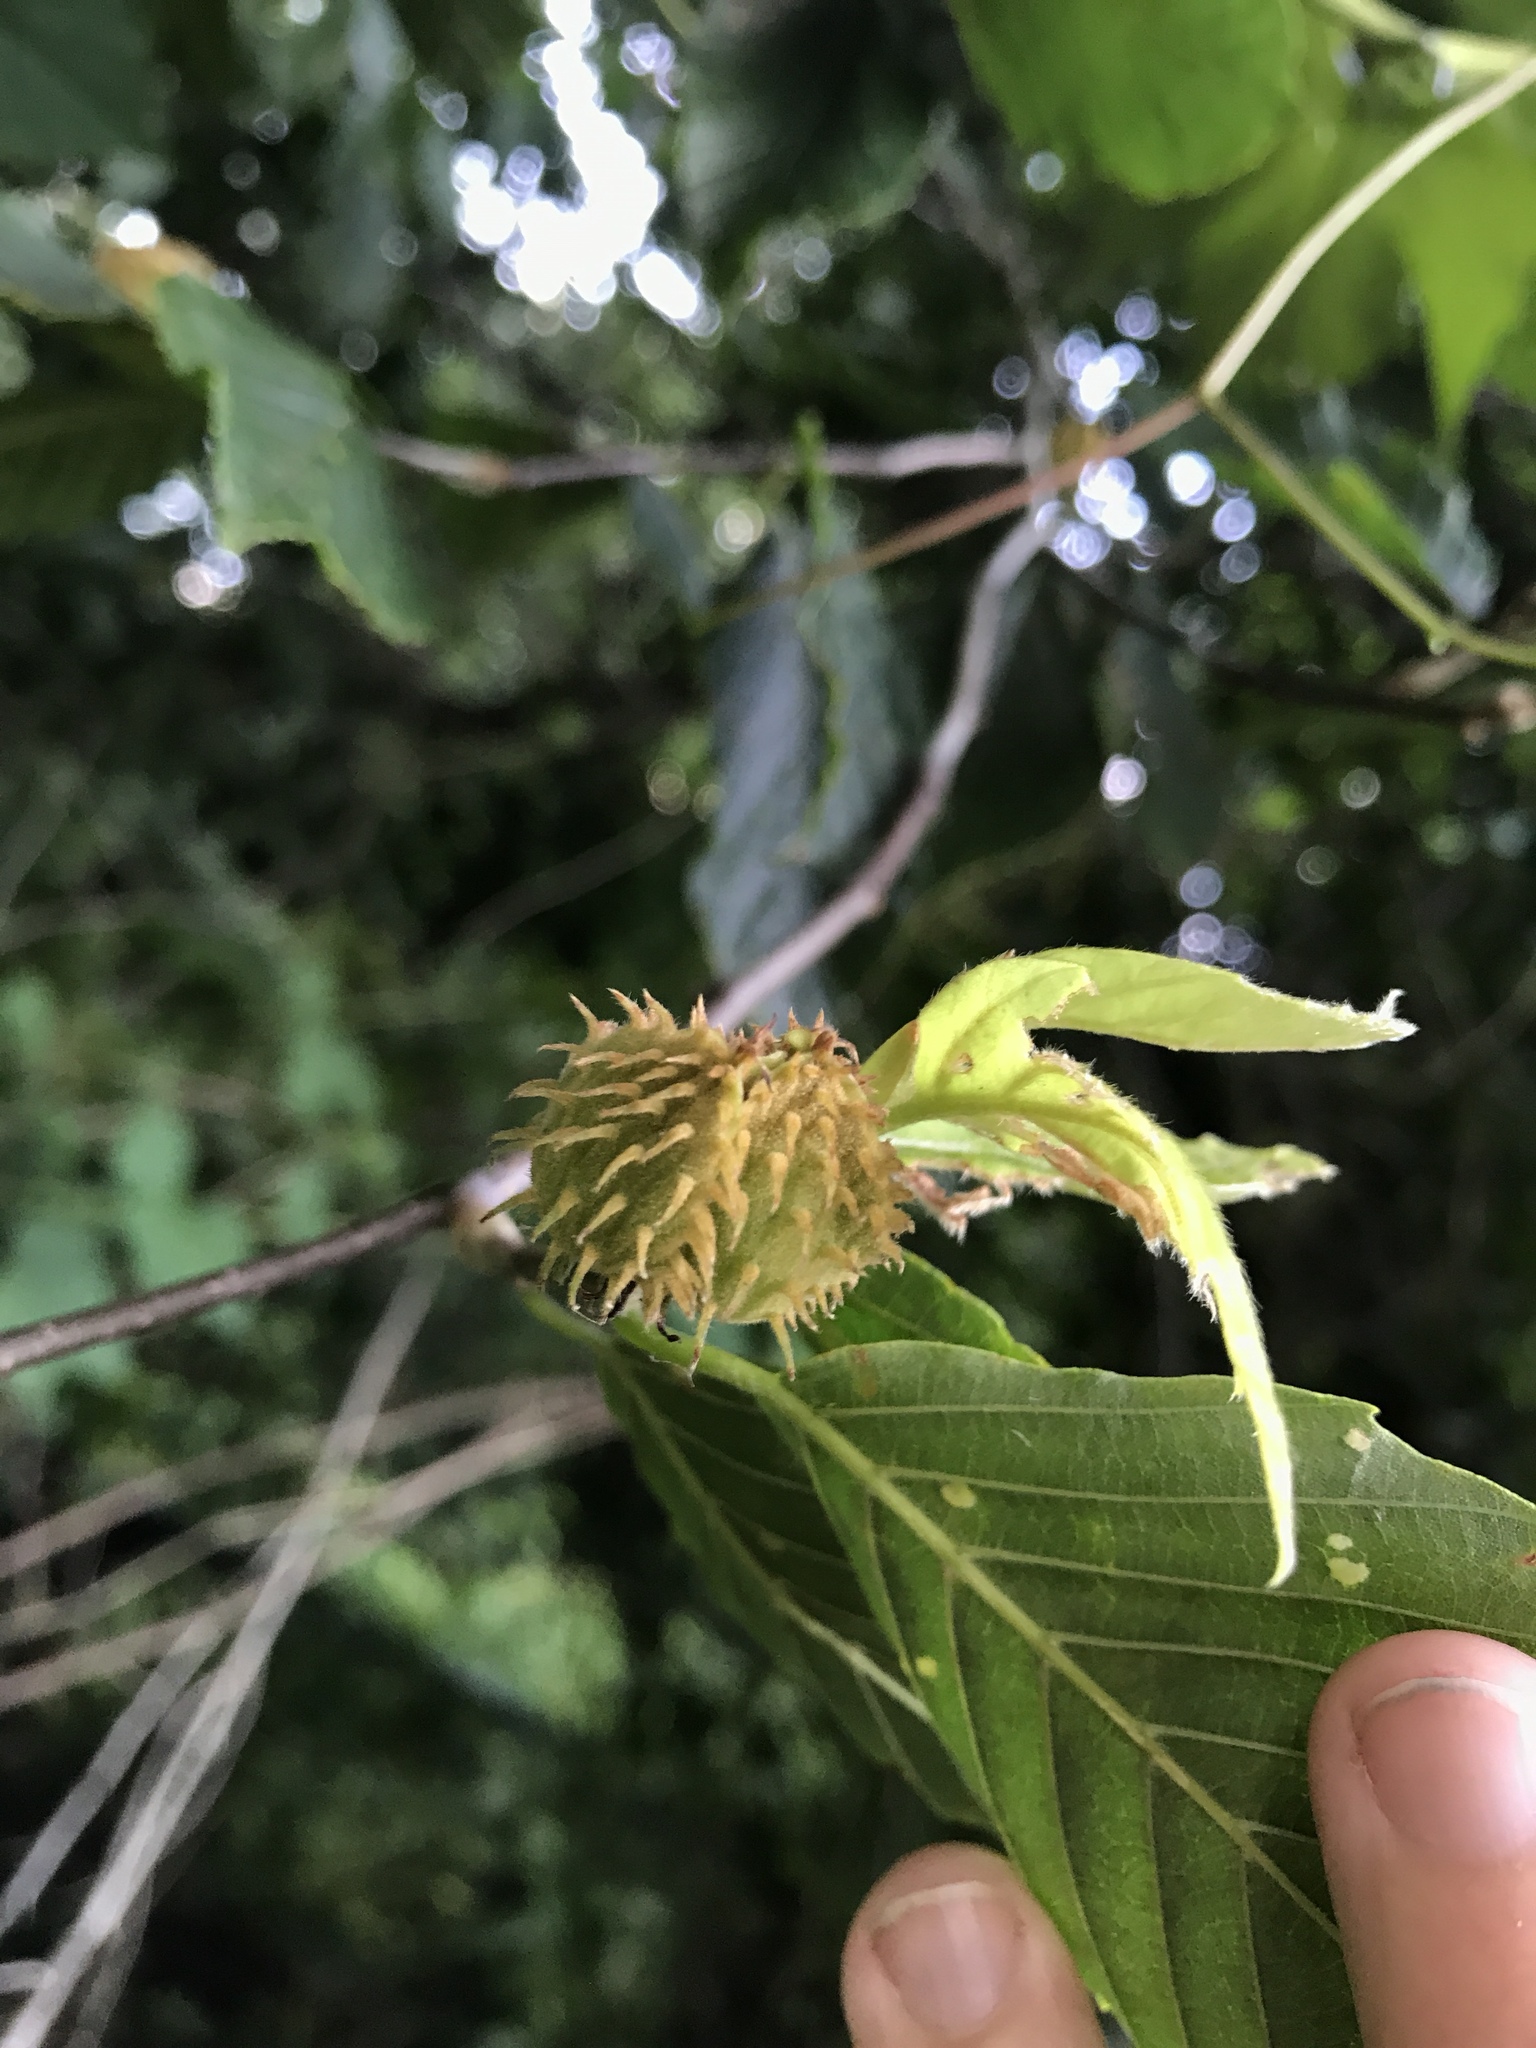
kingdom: Plantae
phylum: Tracheophyta
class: Magnoliopsida
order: Fagales
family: Fagaceae
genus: Fagus
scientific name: Fagus grandifolia
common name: American beech
